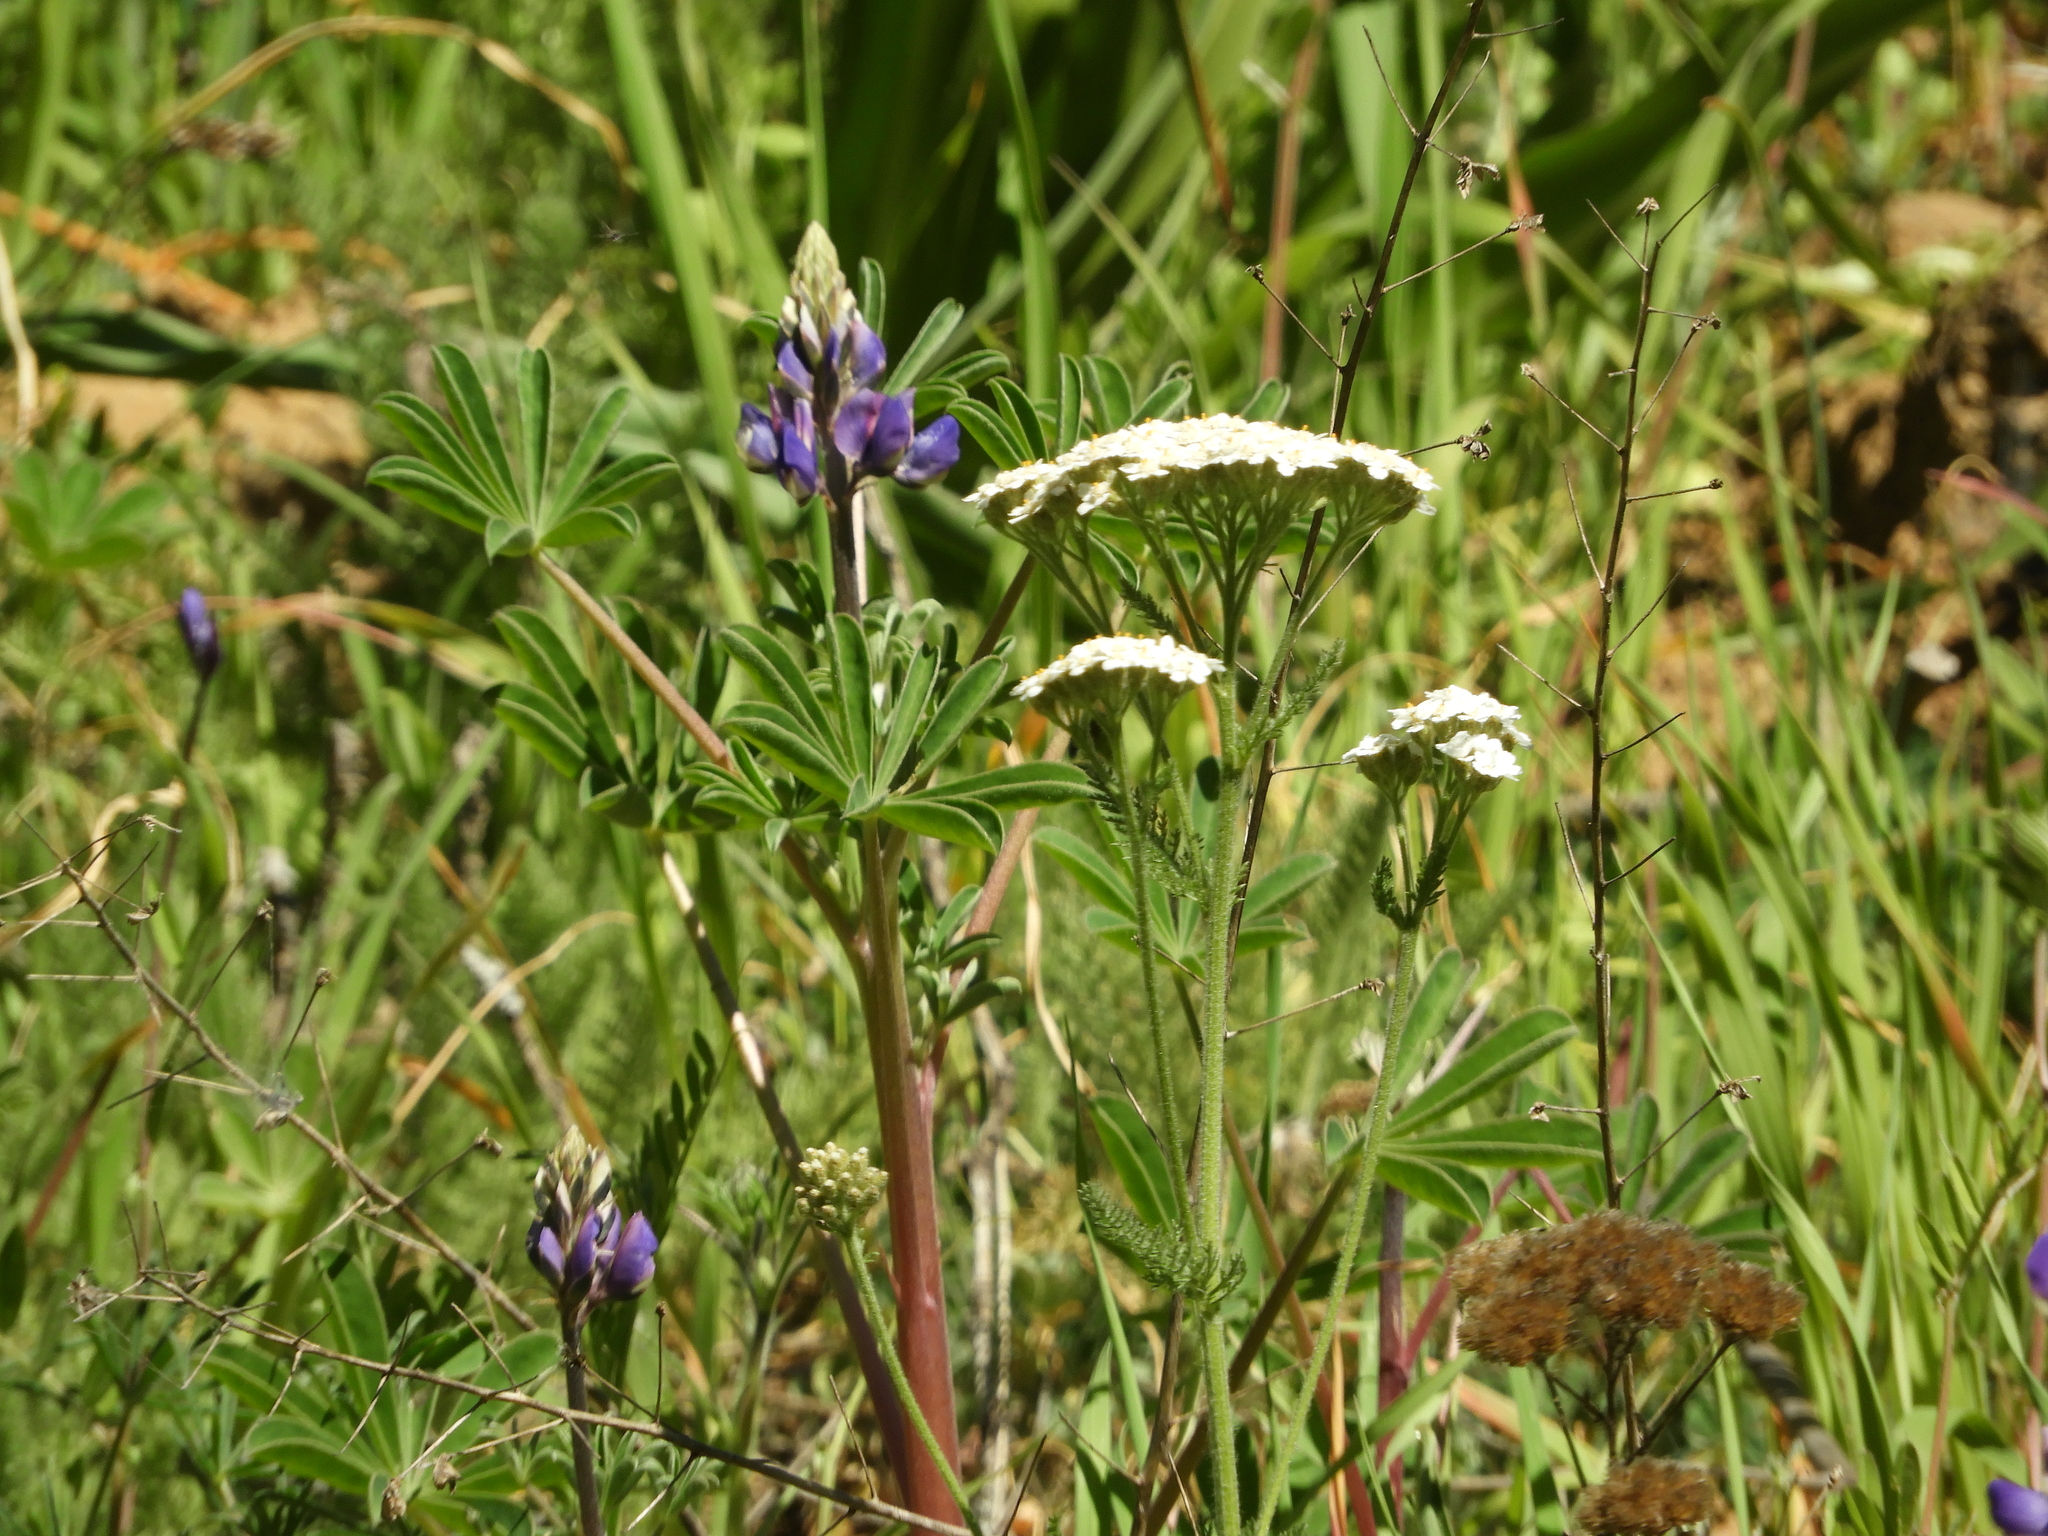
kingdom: Plantae
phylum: Tracheophyta
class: Magnoliopsida
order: Asterales
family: Asteraceae
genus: Achillea
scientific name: Achillea millefolium
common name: Yarrow
